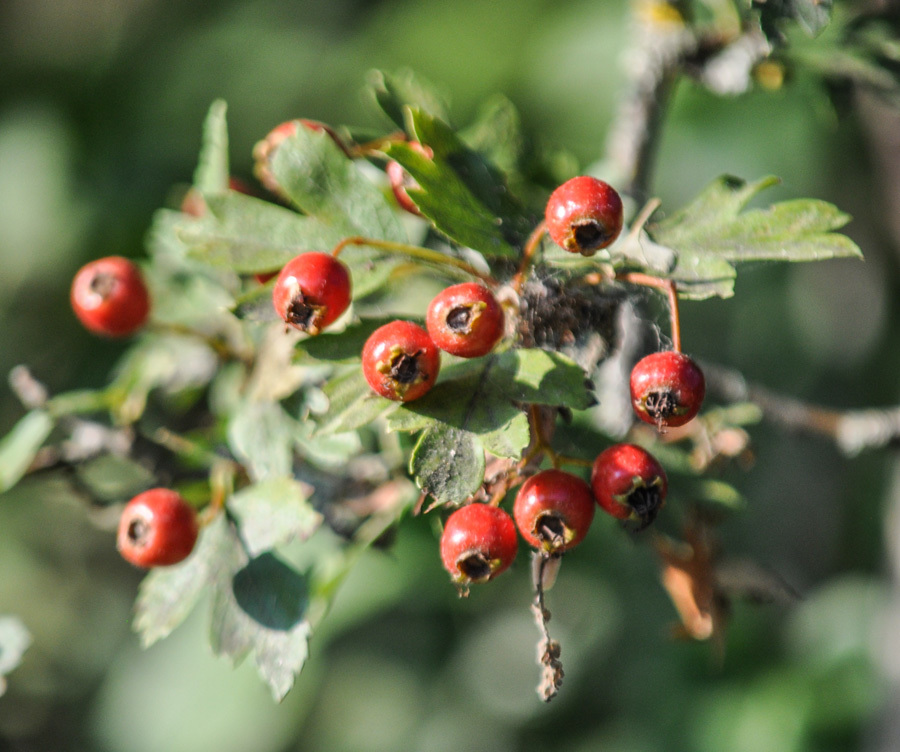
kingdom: Plantae
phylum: Tracheophyta
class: Magnoliopsida
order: Rosales
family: Rosaceae
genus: Crataegus
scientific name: Crataegus monogyna
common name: Hawthorn
